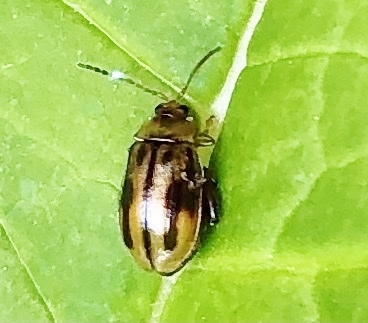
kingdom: Animalia
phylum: Arthropoda
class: Insecta
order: Coleoptera
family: Chrysomelidae
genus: Capraita
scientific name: Capraita subvittata
